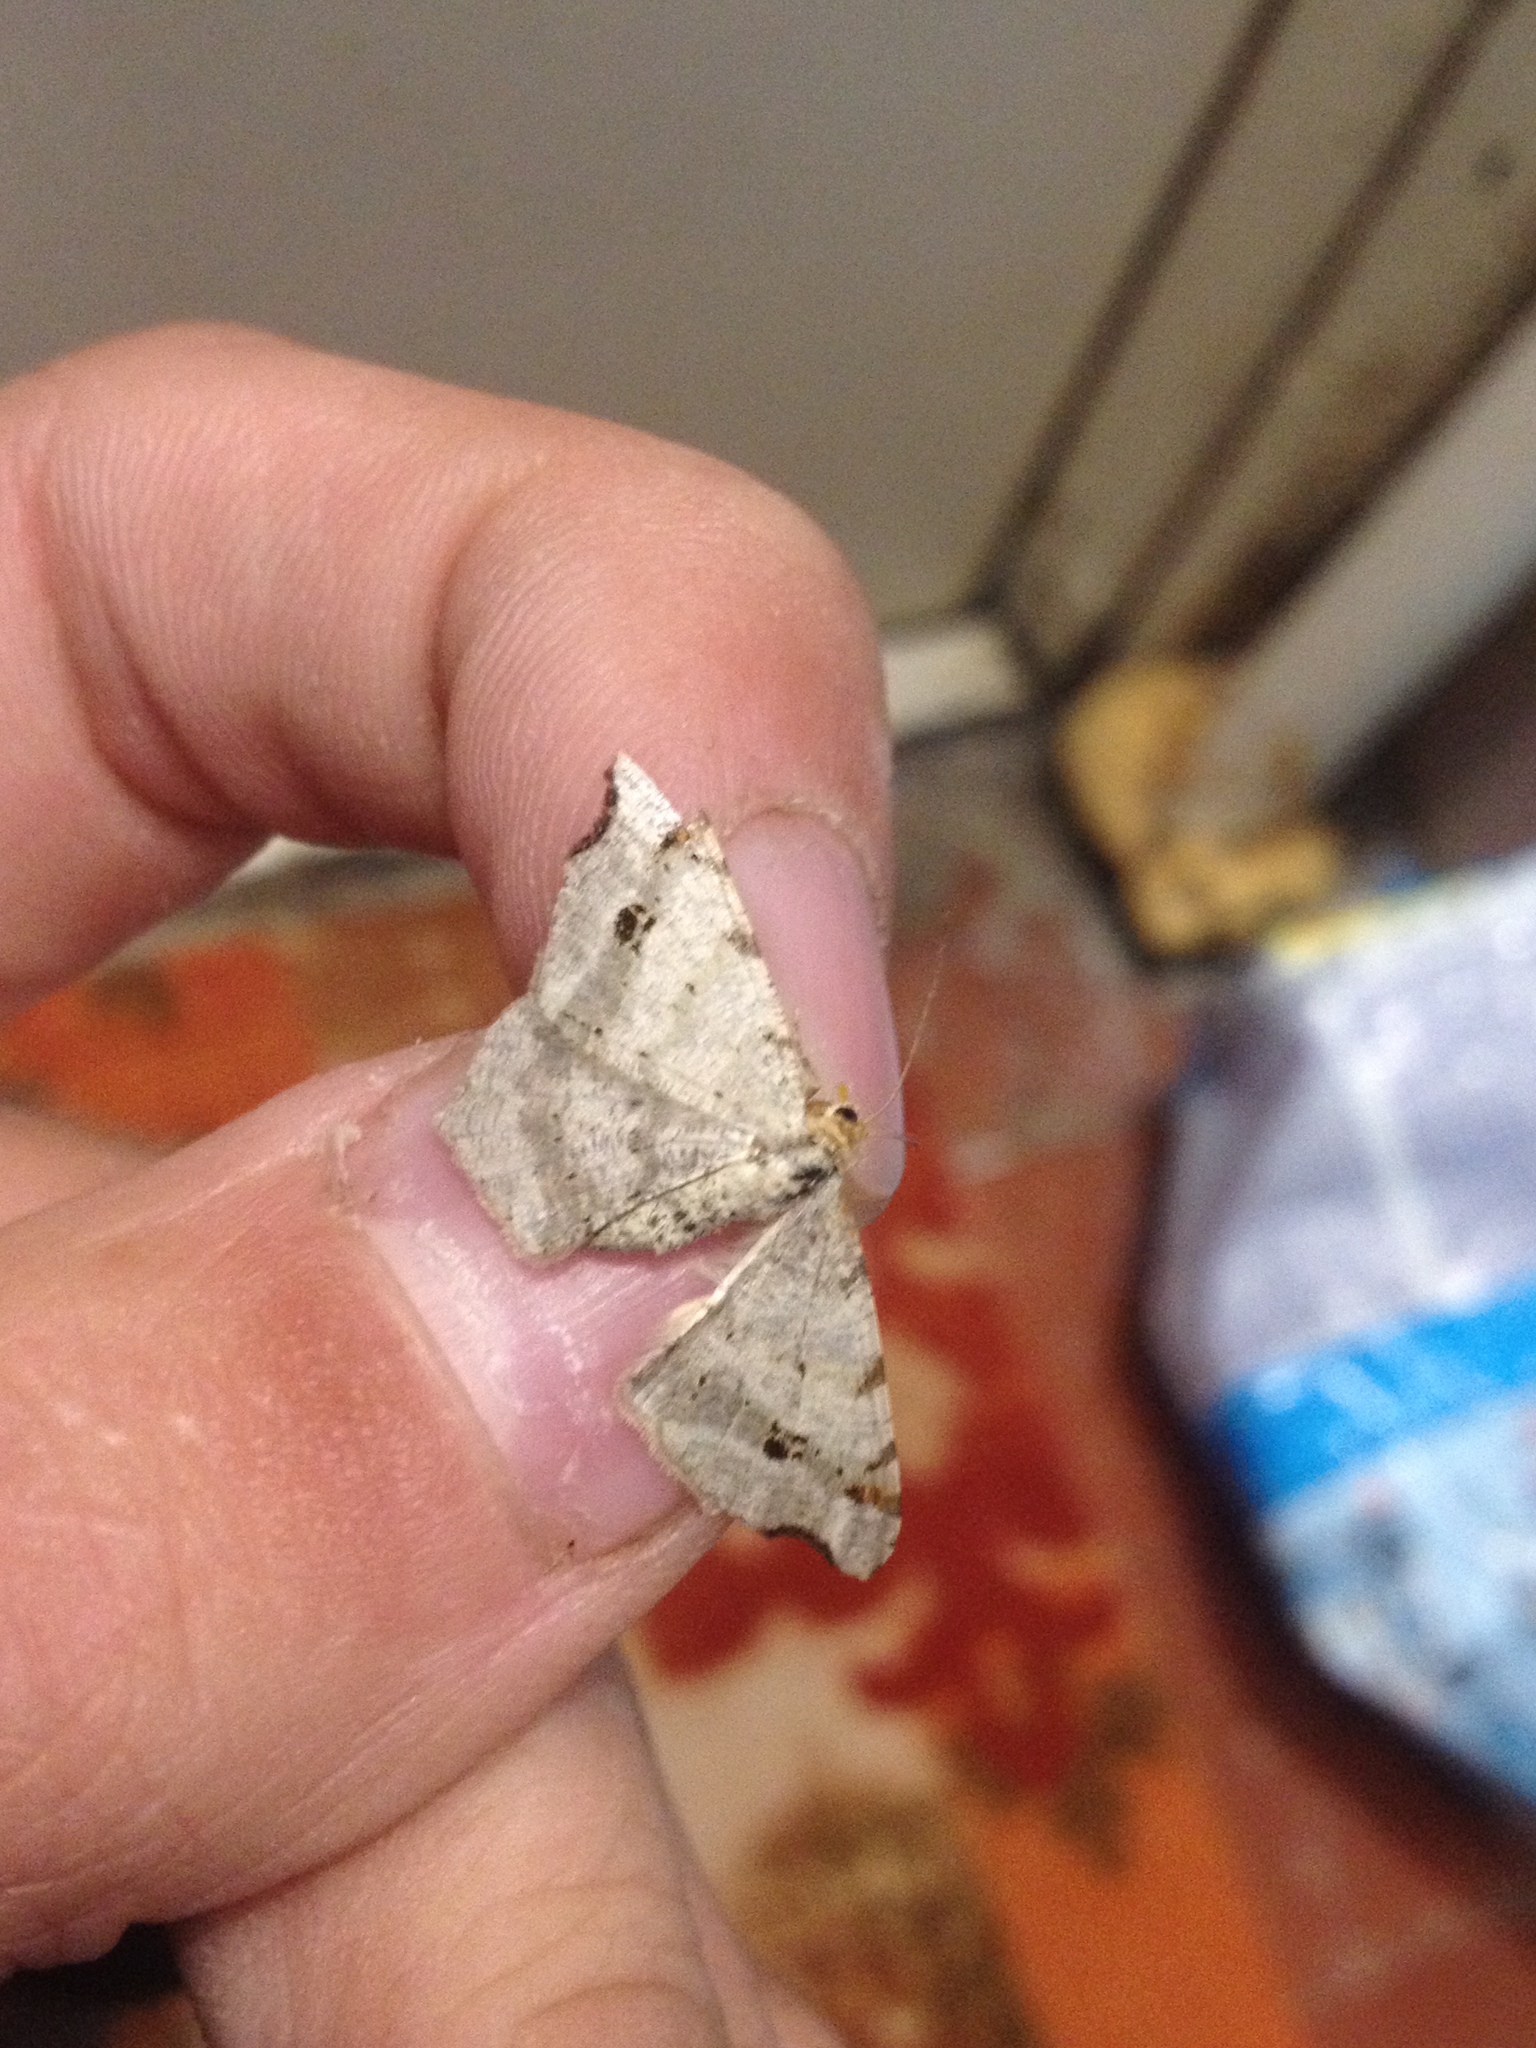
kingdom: Animalia
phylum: Arthropoda
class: Insecta
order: Lepidoptera
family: Geometridae
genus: Macaria
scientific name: Macaria alternata
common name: Sharp-angled peacock
